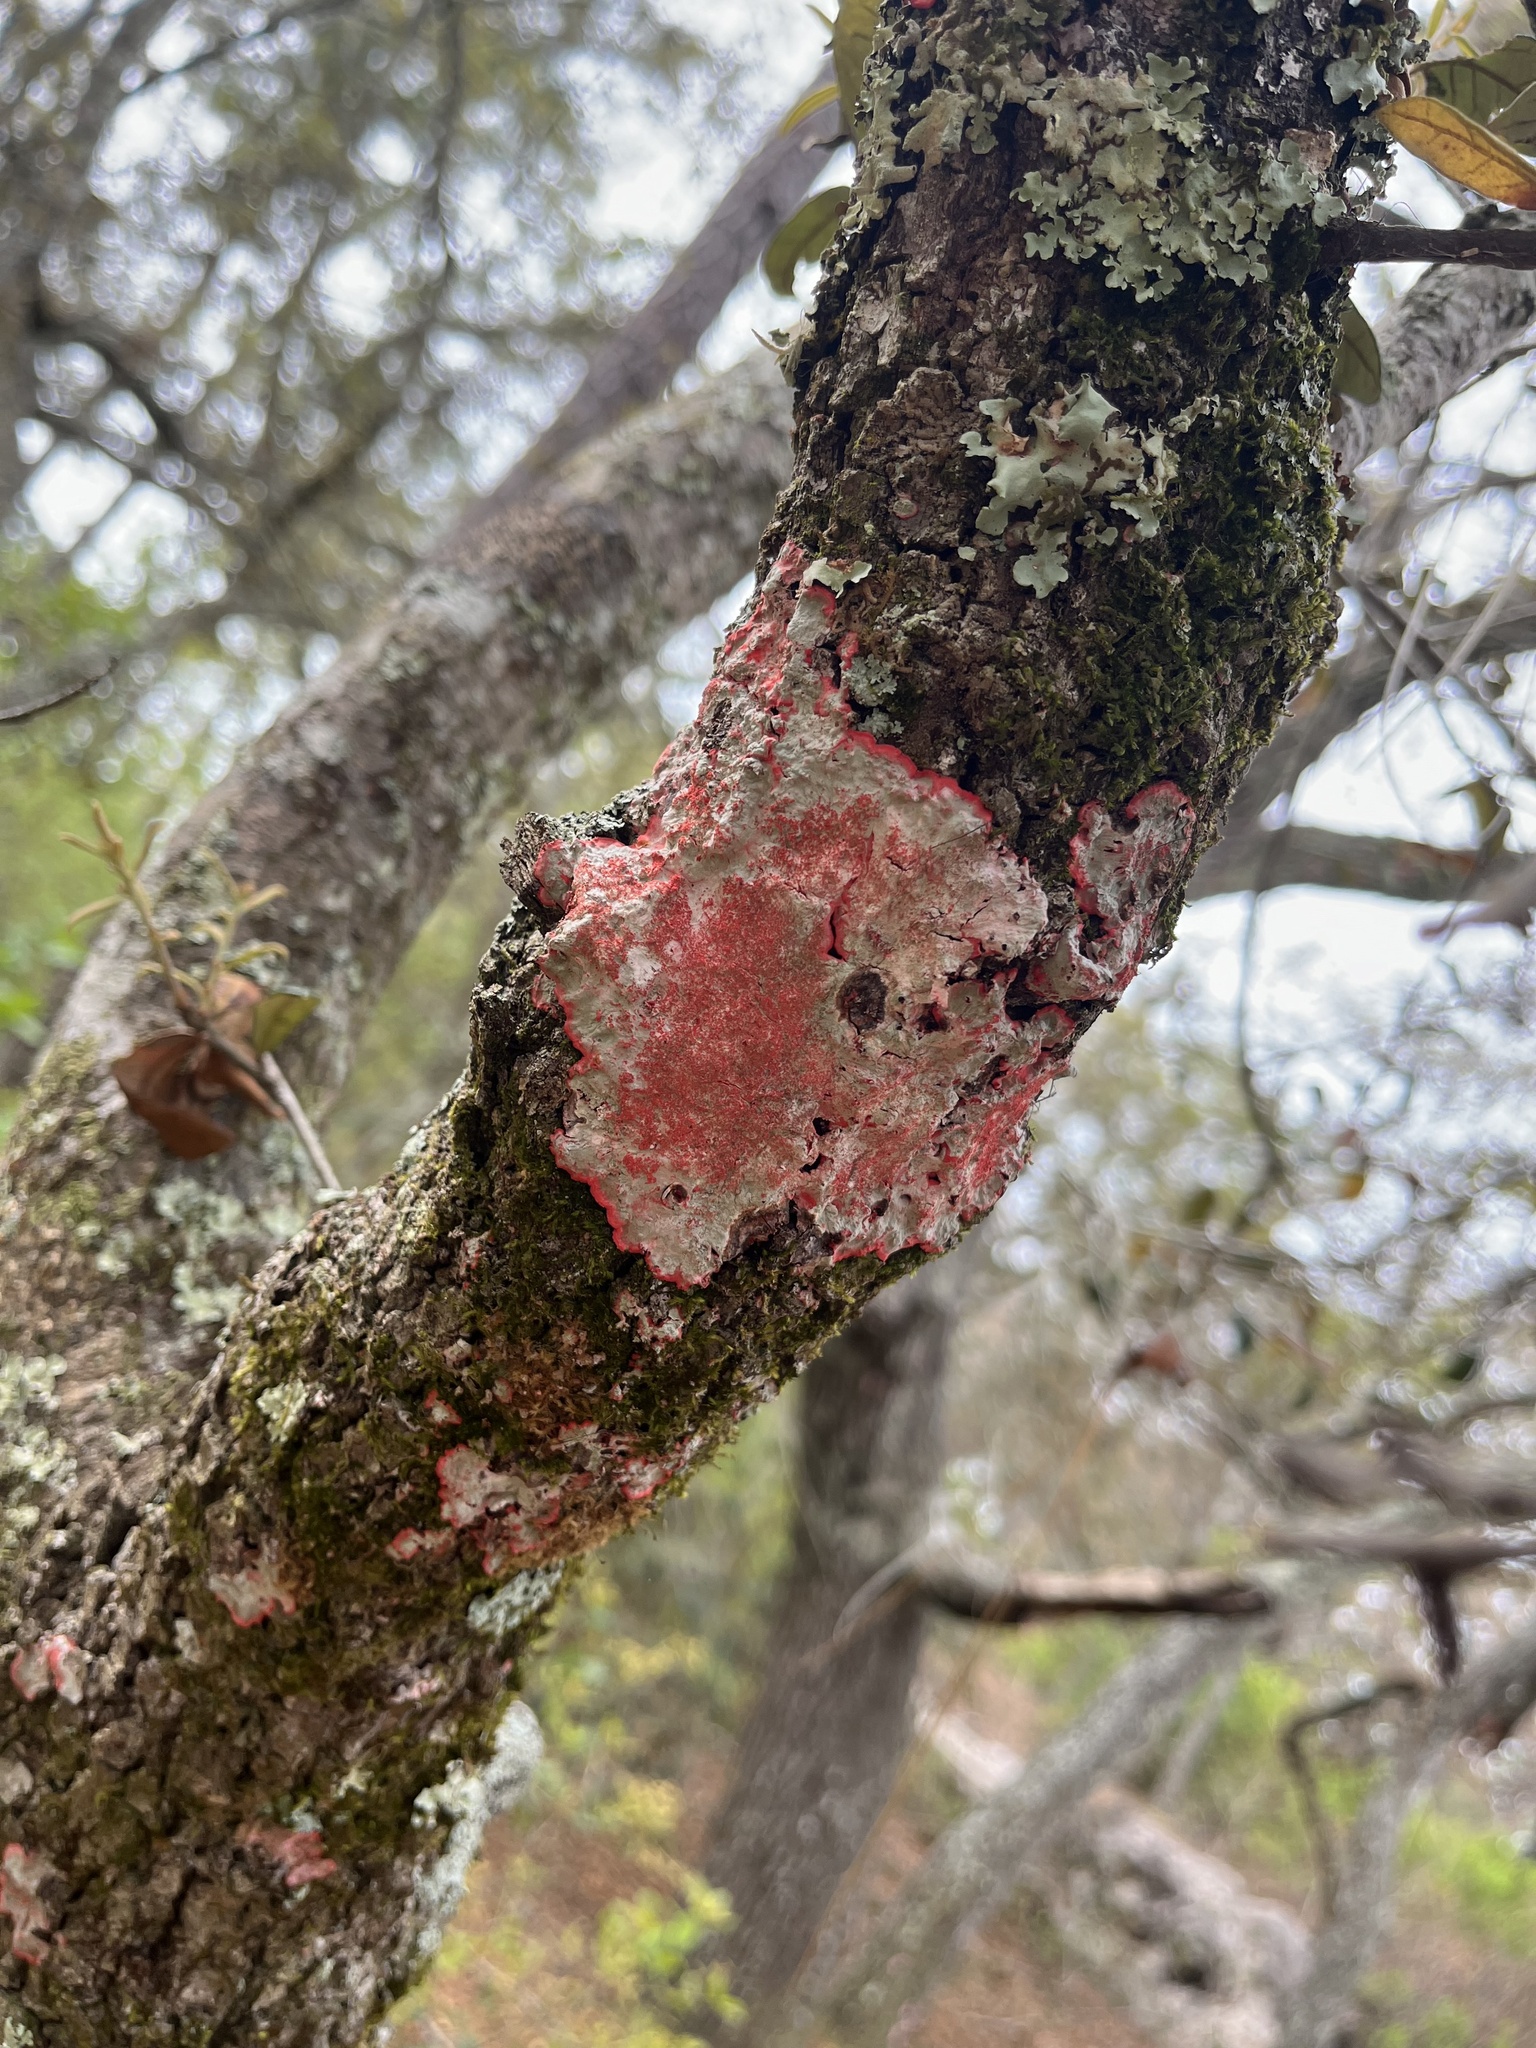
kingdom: Fungi
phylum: Ascomycota
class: Arthoniomycetes
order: Arthoniales
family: Arthoniaceae
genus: Herpothallon
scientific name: Herpothallon rubrocinctum
